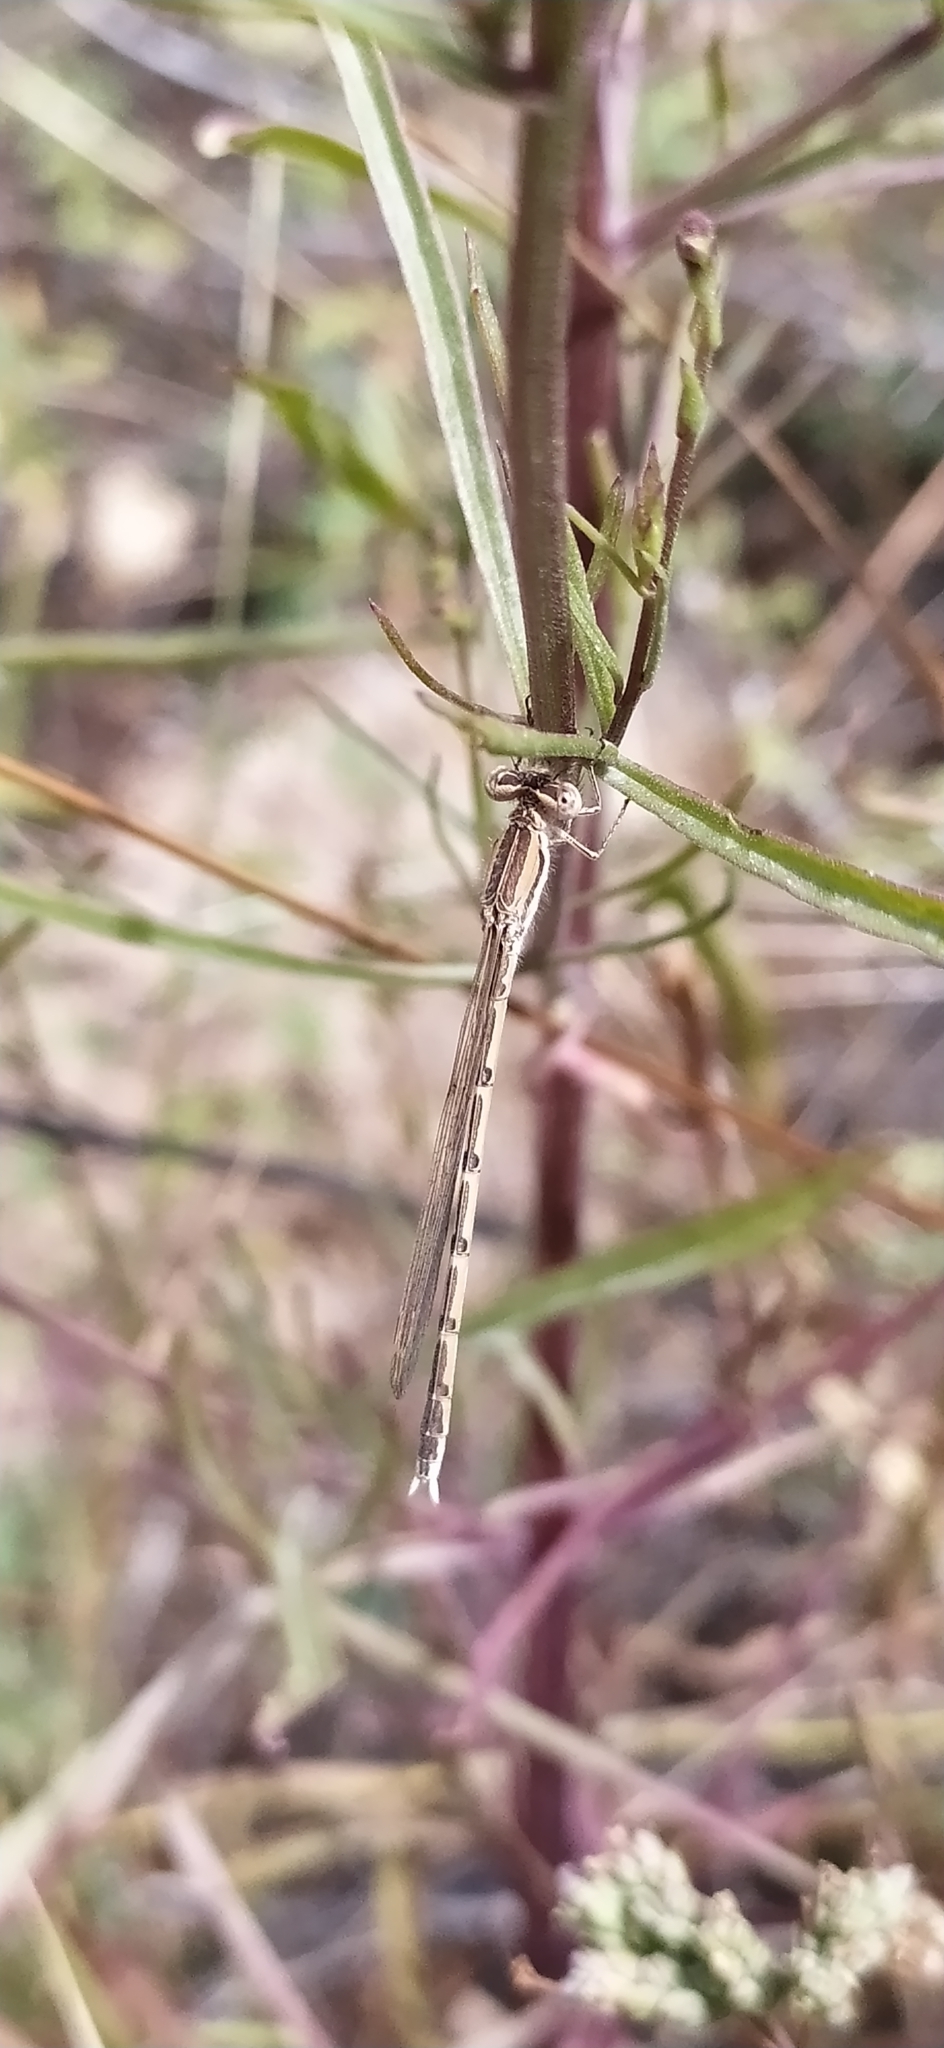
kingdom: Animalia
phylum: Arthropoda
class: Insecta
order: Odonata
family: Lestidae
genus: Sympecma
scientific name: Sympecma fusca
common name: Common winter damsel
